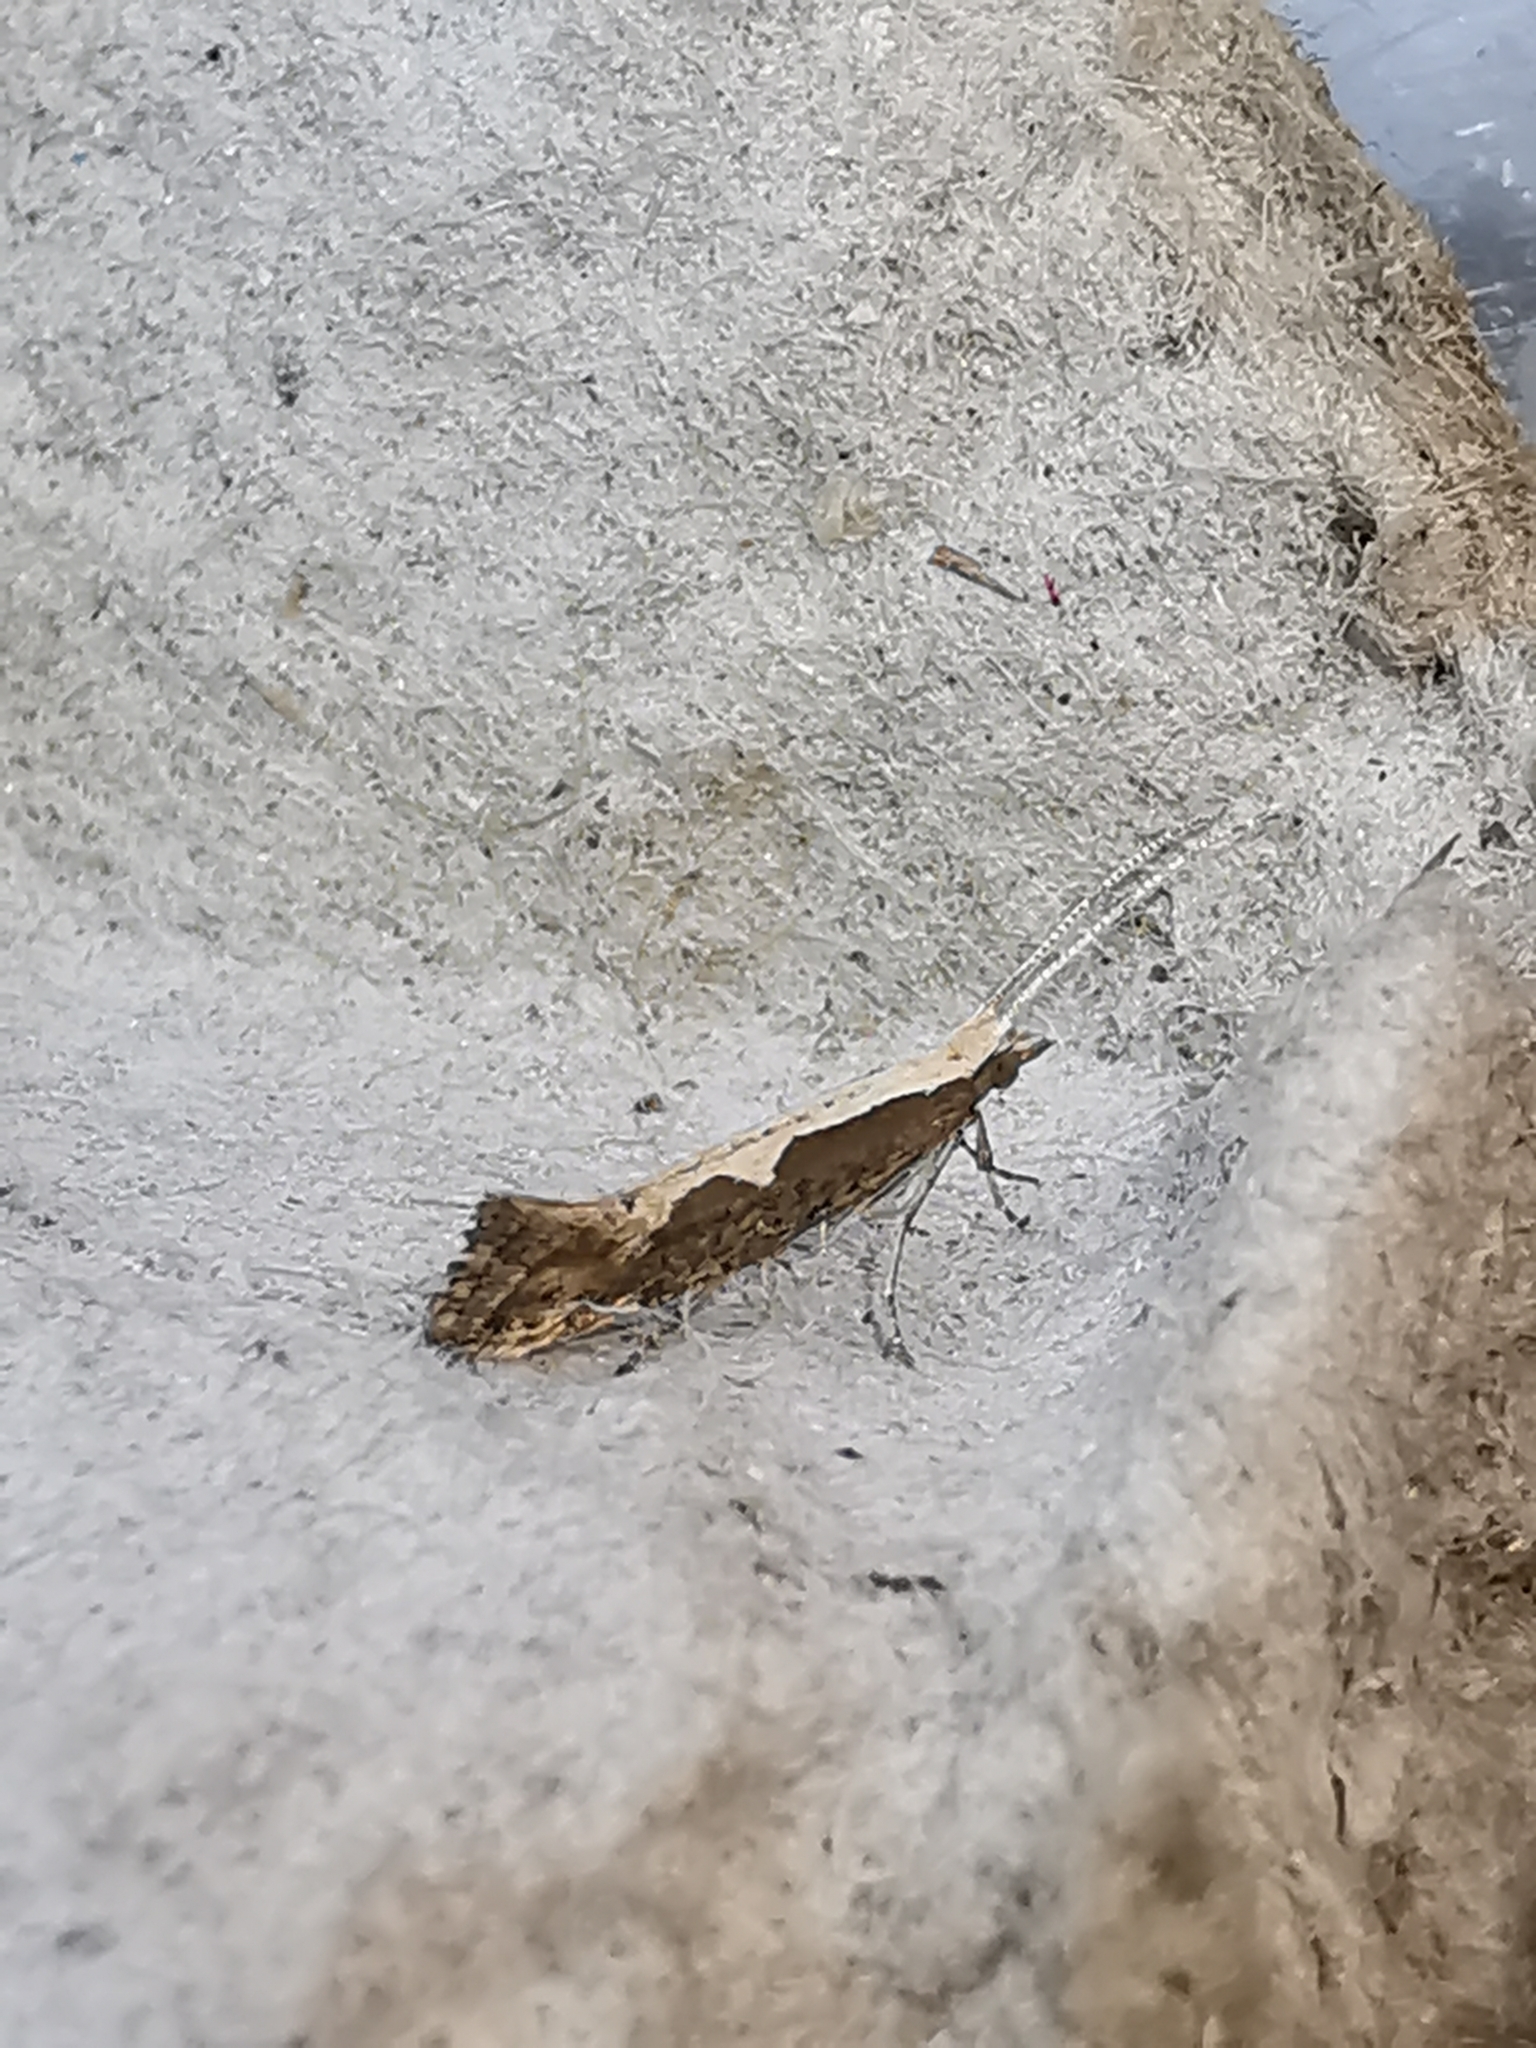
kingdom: Animalia
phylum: Arthropoda
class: Insecta
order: Lepidoptera
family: Plutellidae
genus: Plutella
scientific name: Plutella xylostella
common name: Diamond-back moth
